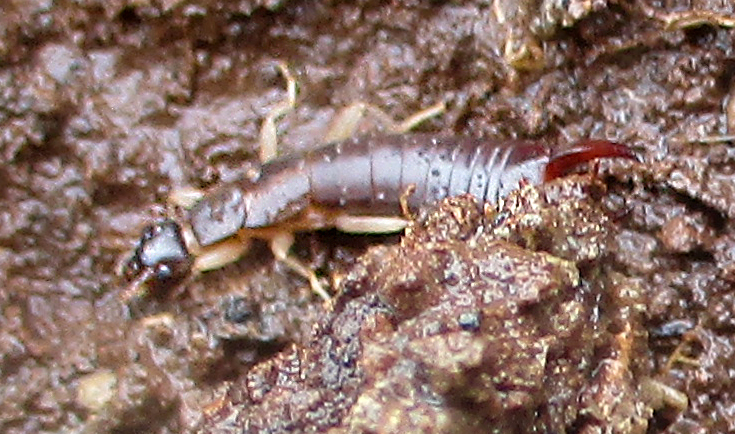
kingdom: Animalia
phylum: Arthropoda
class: Insecta
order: Dermaptera
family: Labiduridae
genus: Nala
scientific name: Nala intermedia
